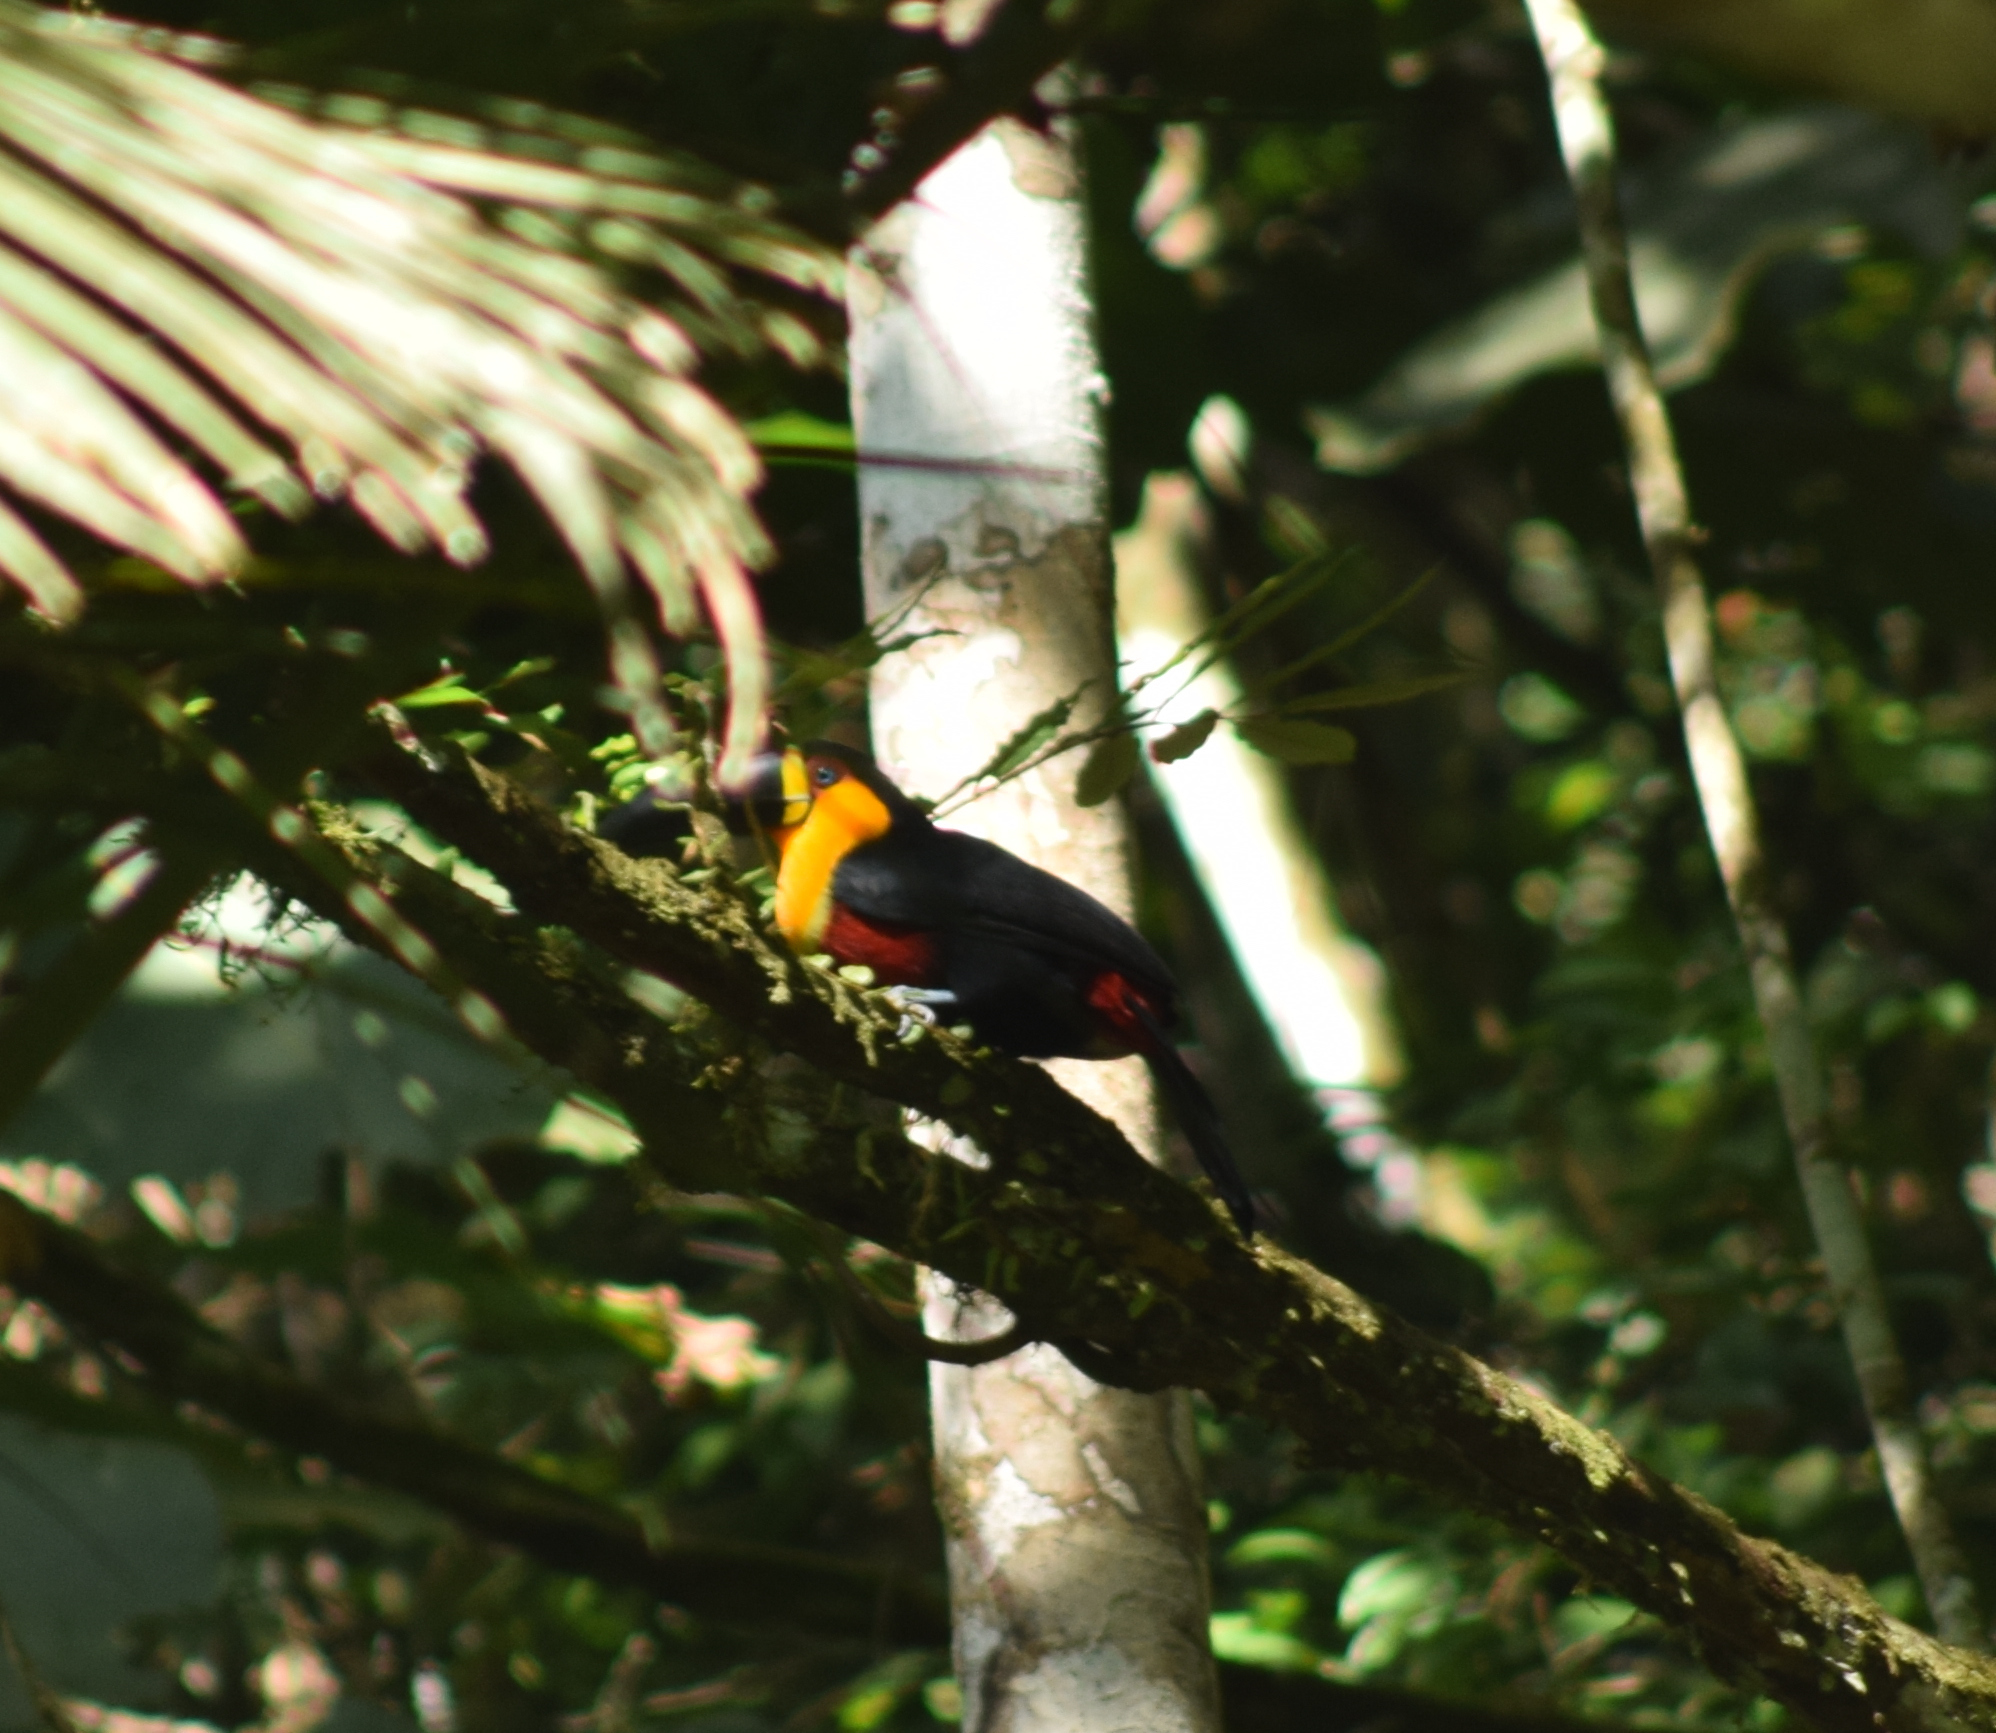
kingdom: Animalia
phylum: Chordata
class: Aves
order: Piciformes
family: Ramphastidae
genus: Ramphastos
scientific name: Ramphastos vitellinus
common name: Channel-billed toucan
